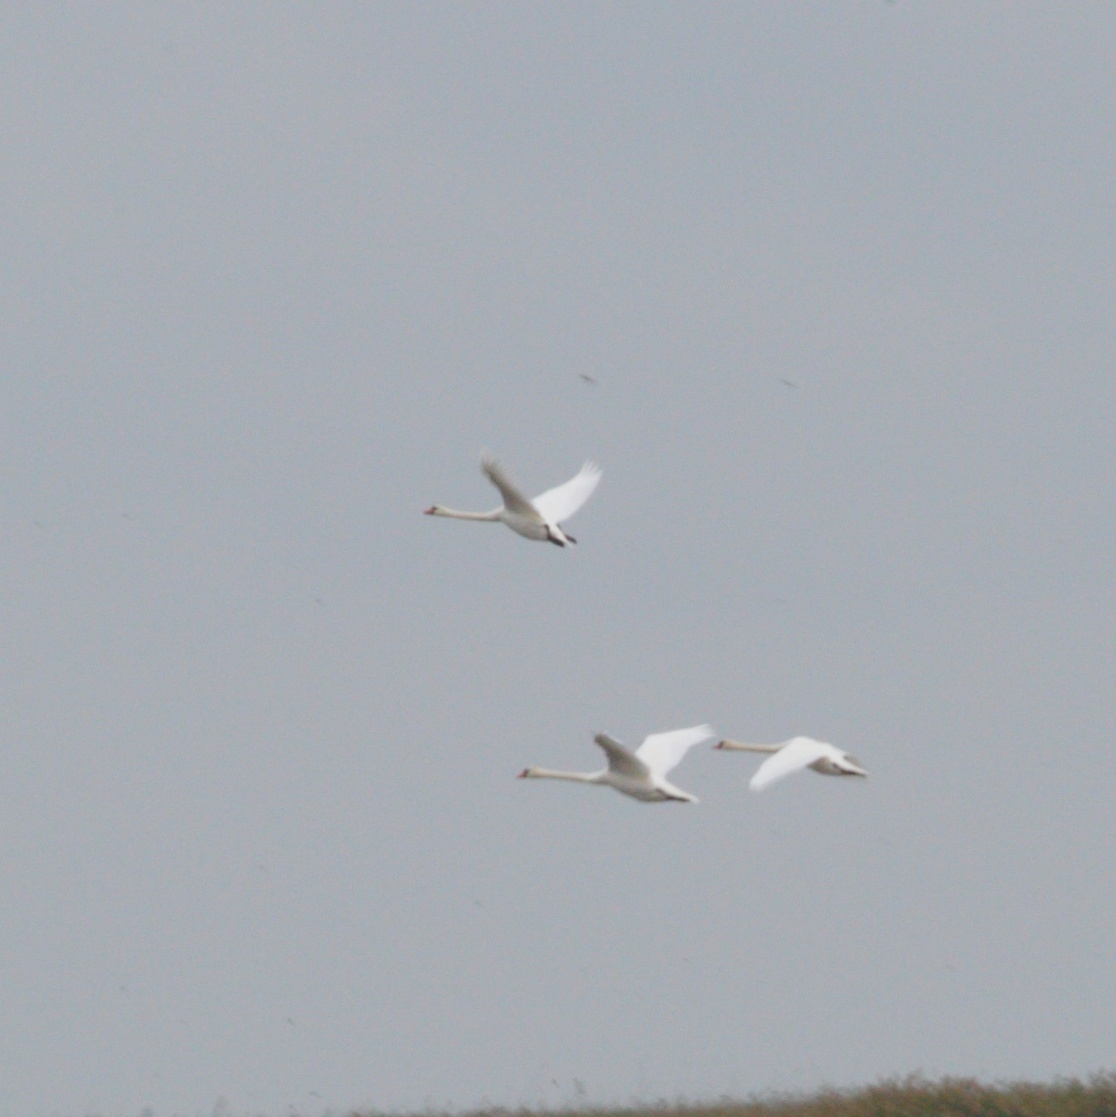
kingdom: Animalia
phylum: Chordata
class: Aves
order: Anseriformes
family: Anatidae
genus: Cygnus
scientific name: Cygnus olor
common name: Mute swan
